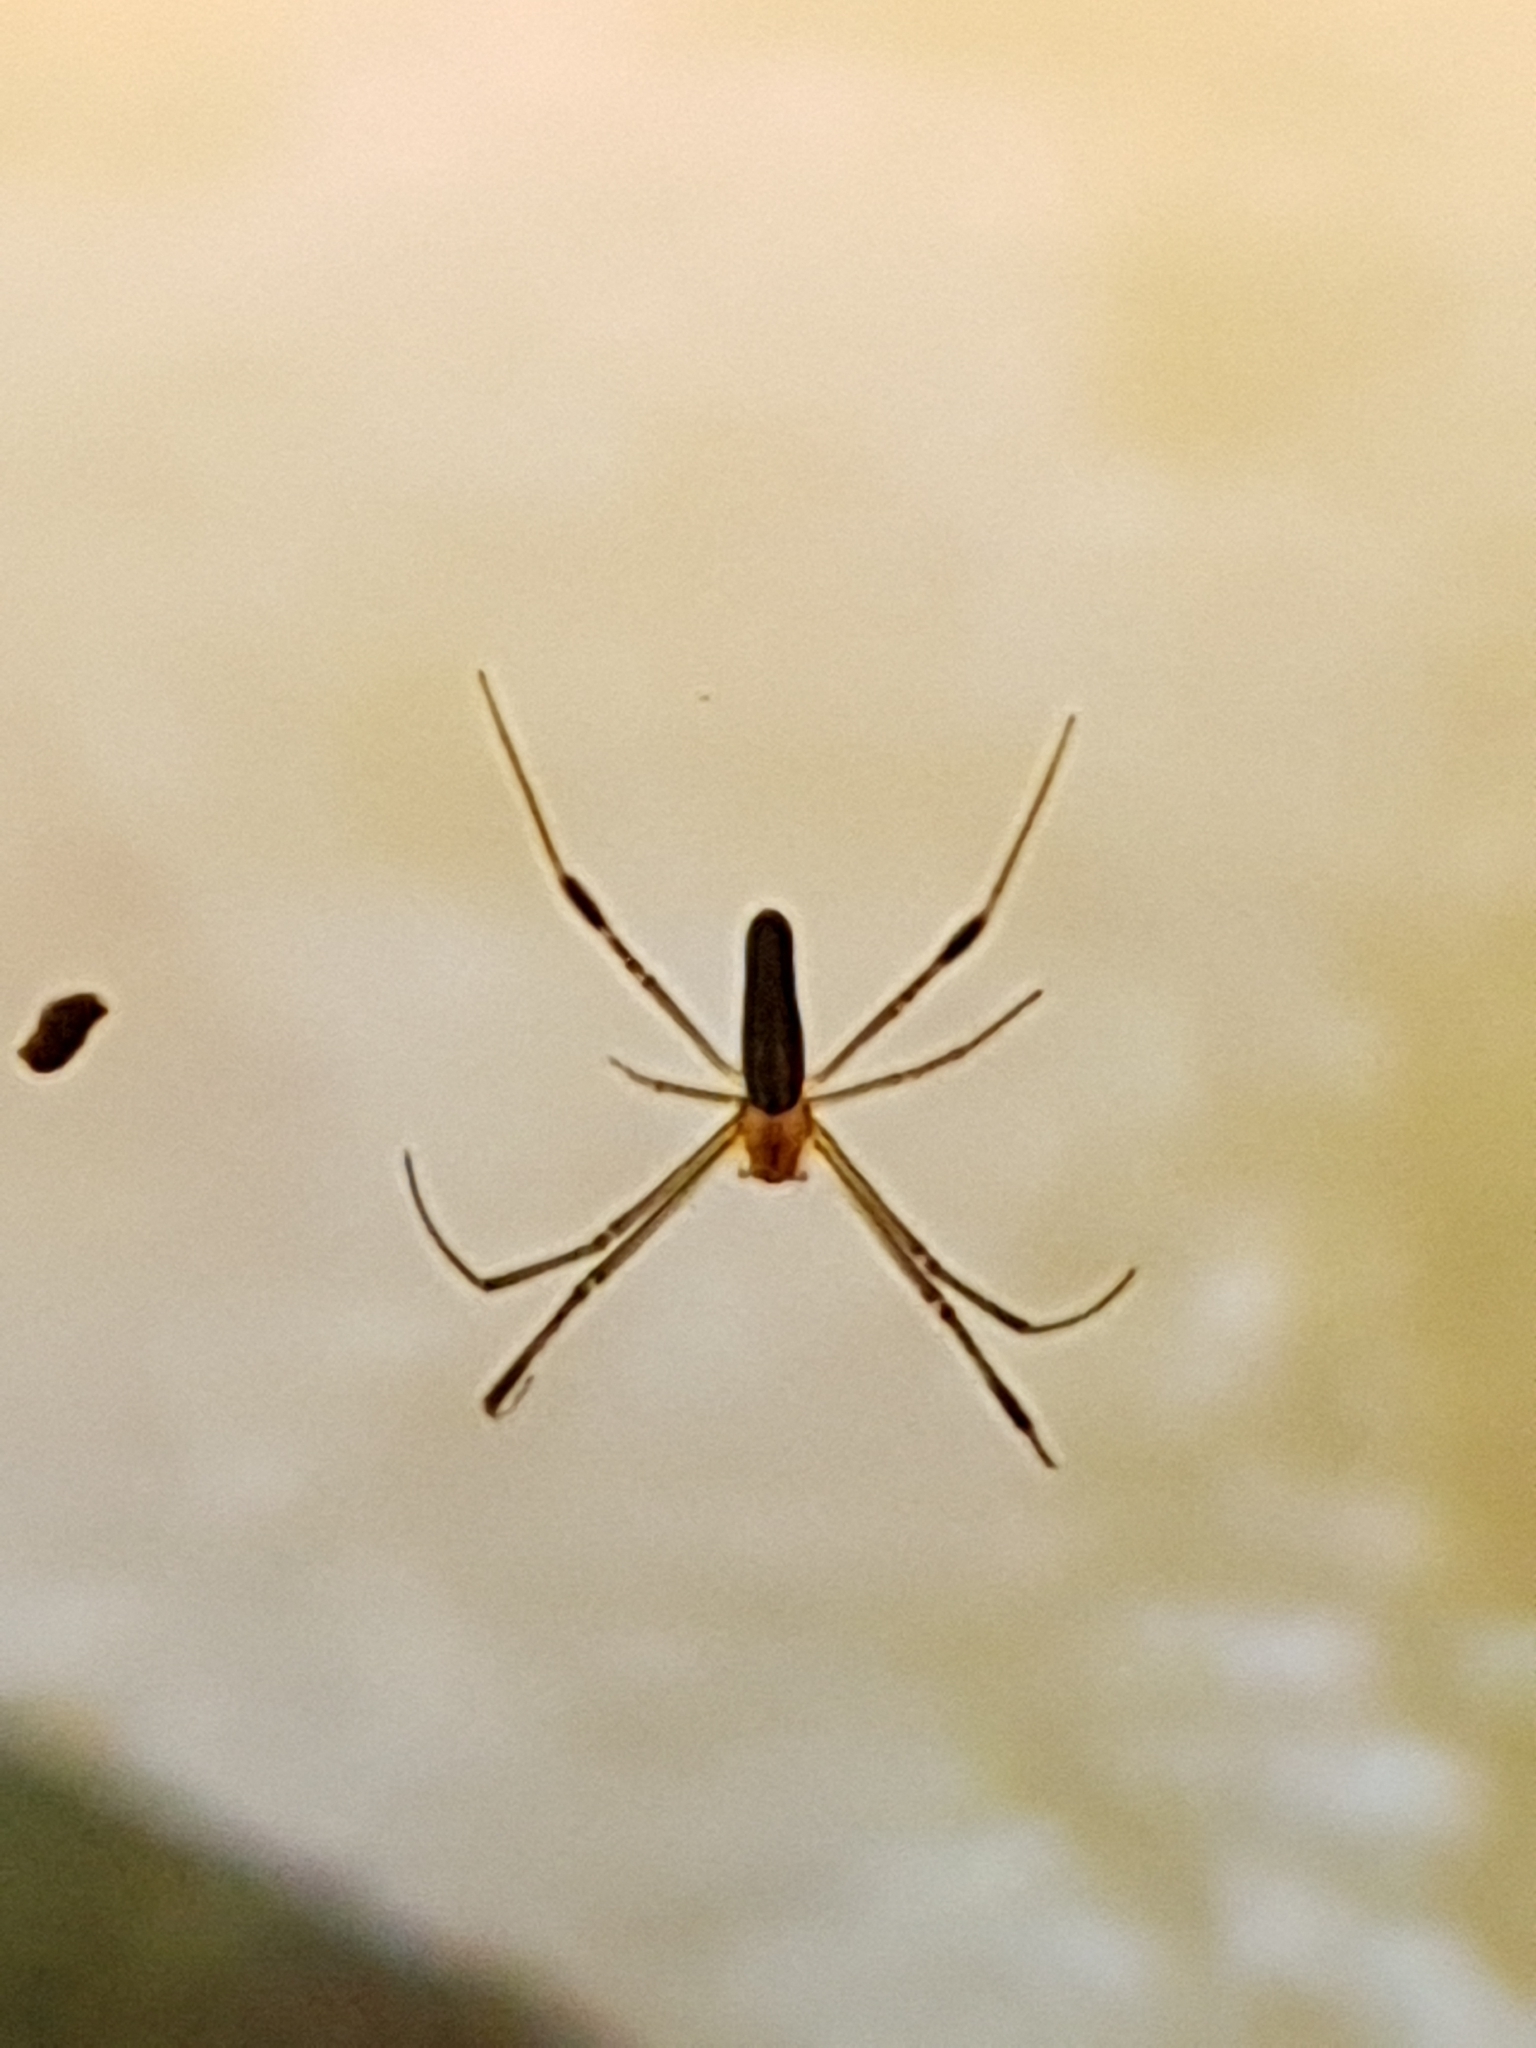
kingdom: Animalia
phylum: Arthropoda
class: Arachnida
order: Araneae
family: Araneidae
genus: Nephila
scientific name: Nephila kuhli
